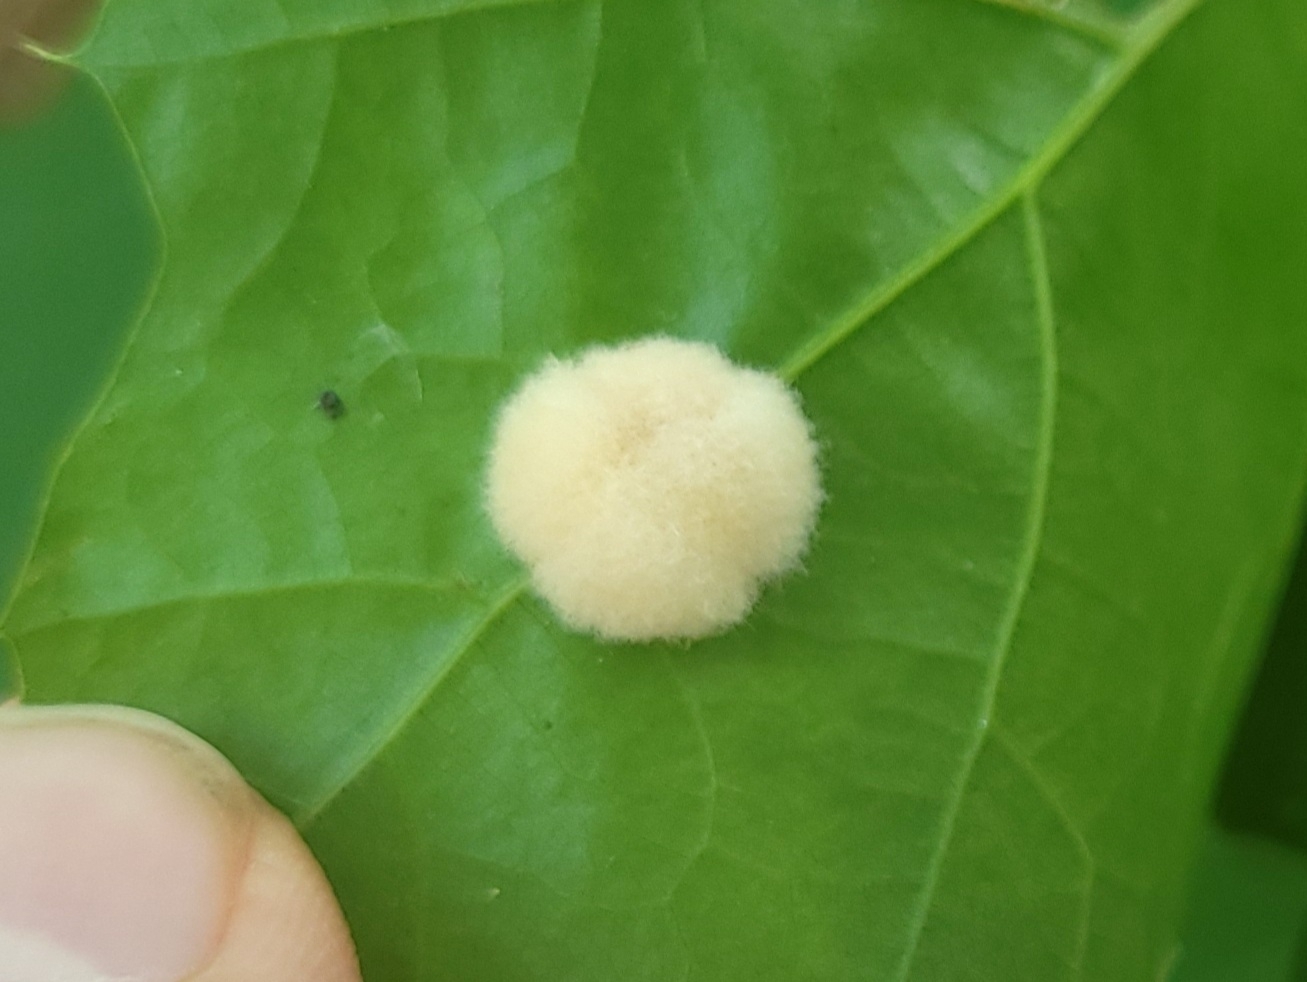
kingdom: Animalia
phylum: Arthropoda
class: Insecta
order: Hymenoptera
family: Cynipidae
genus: Callirhytis
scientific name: Callirhytis
